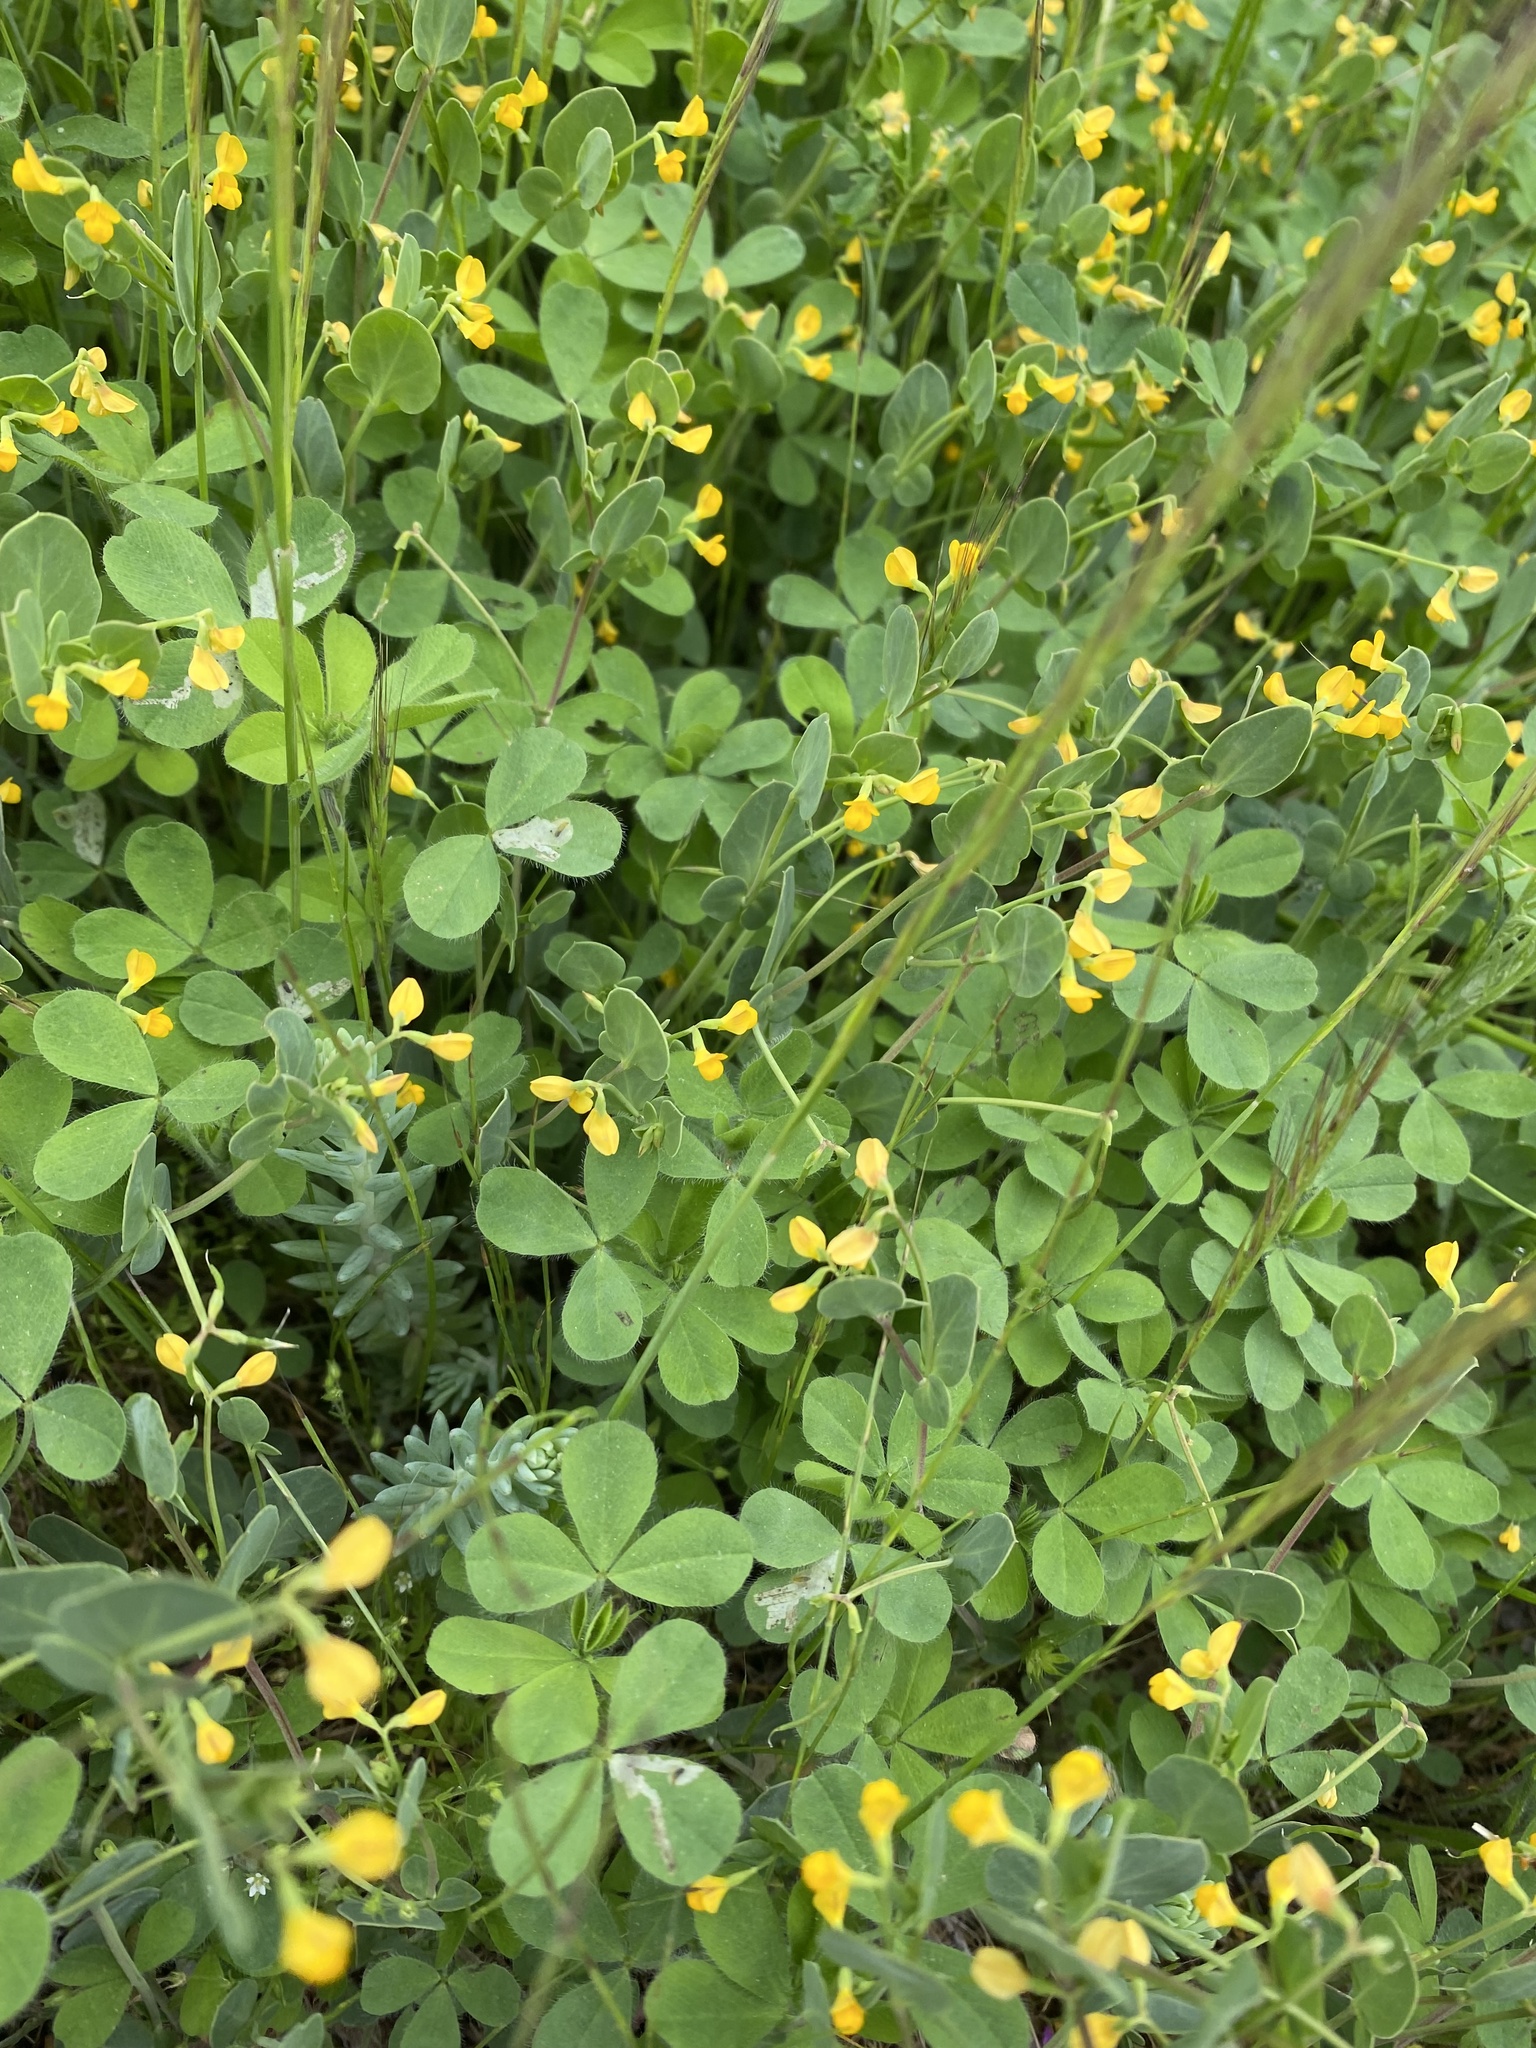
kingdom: Plantae
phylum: Tracheophyta
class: Magnoliopsida
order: Fabales
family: Fabaceae
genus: Coronilla
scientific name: Coronilla scorpioides
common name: Annual scorpion-vetch
